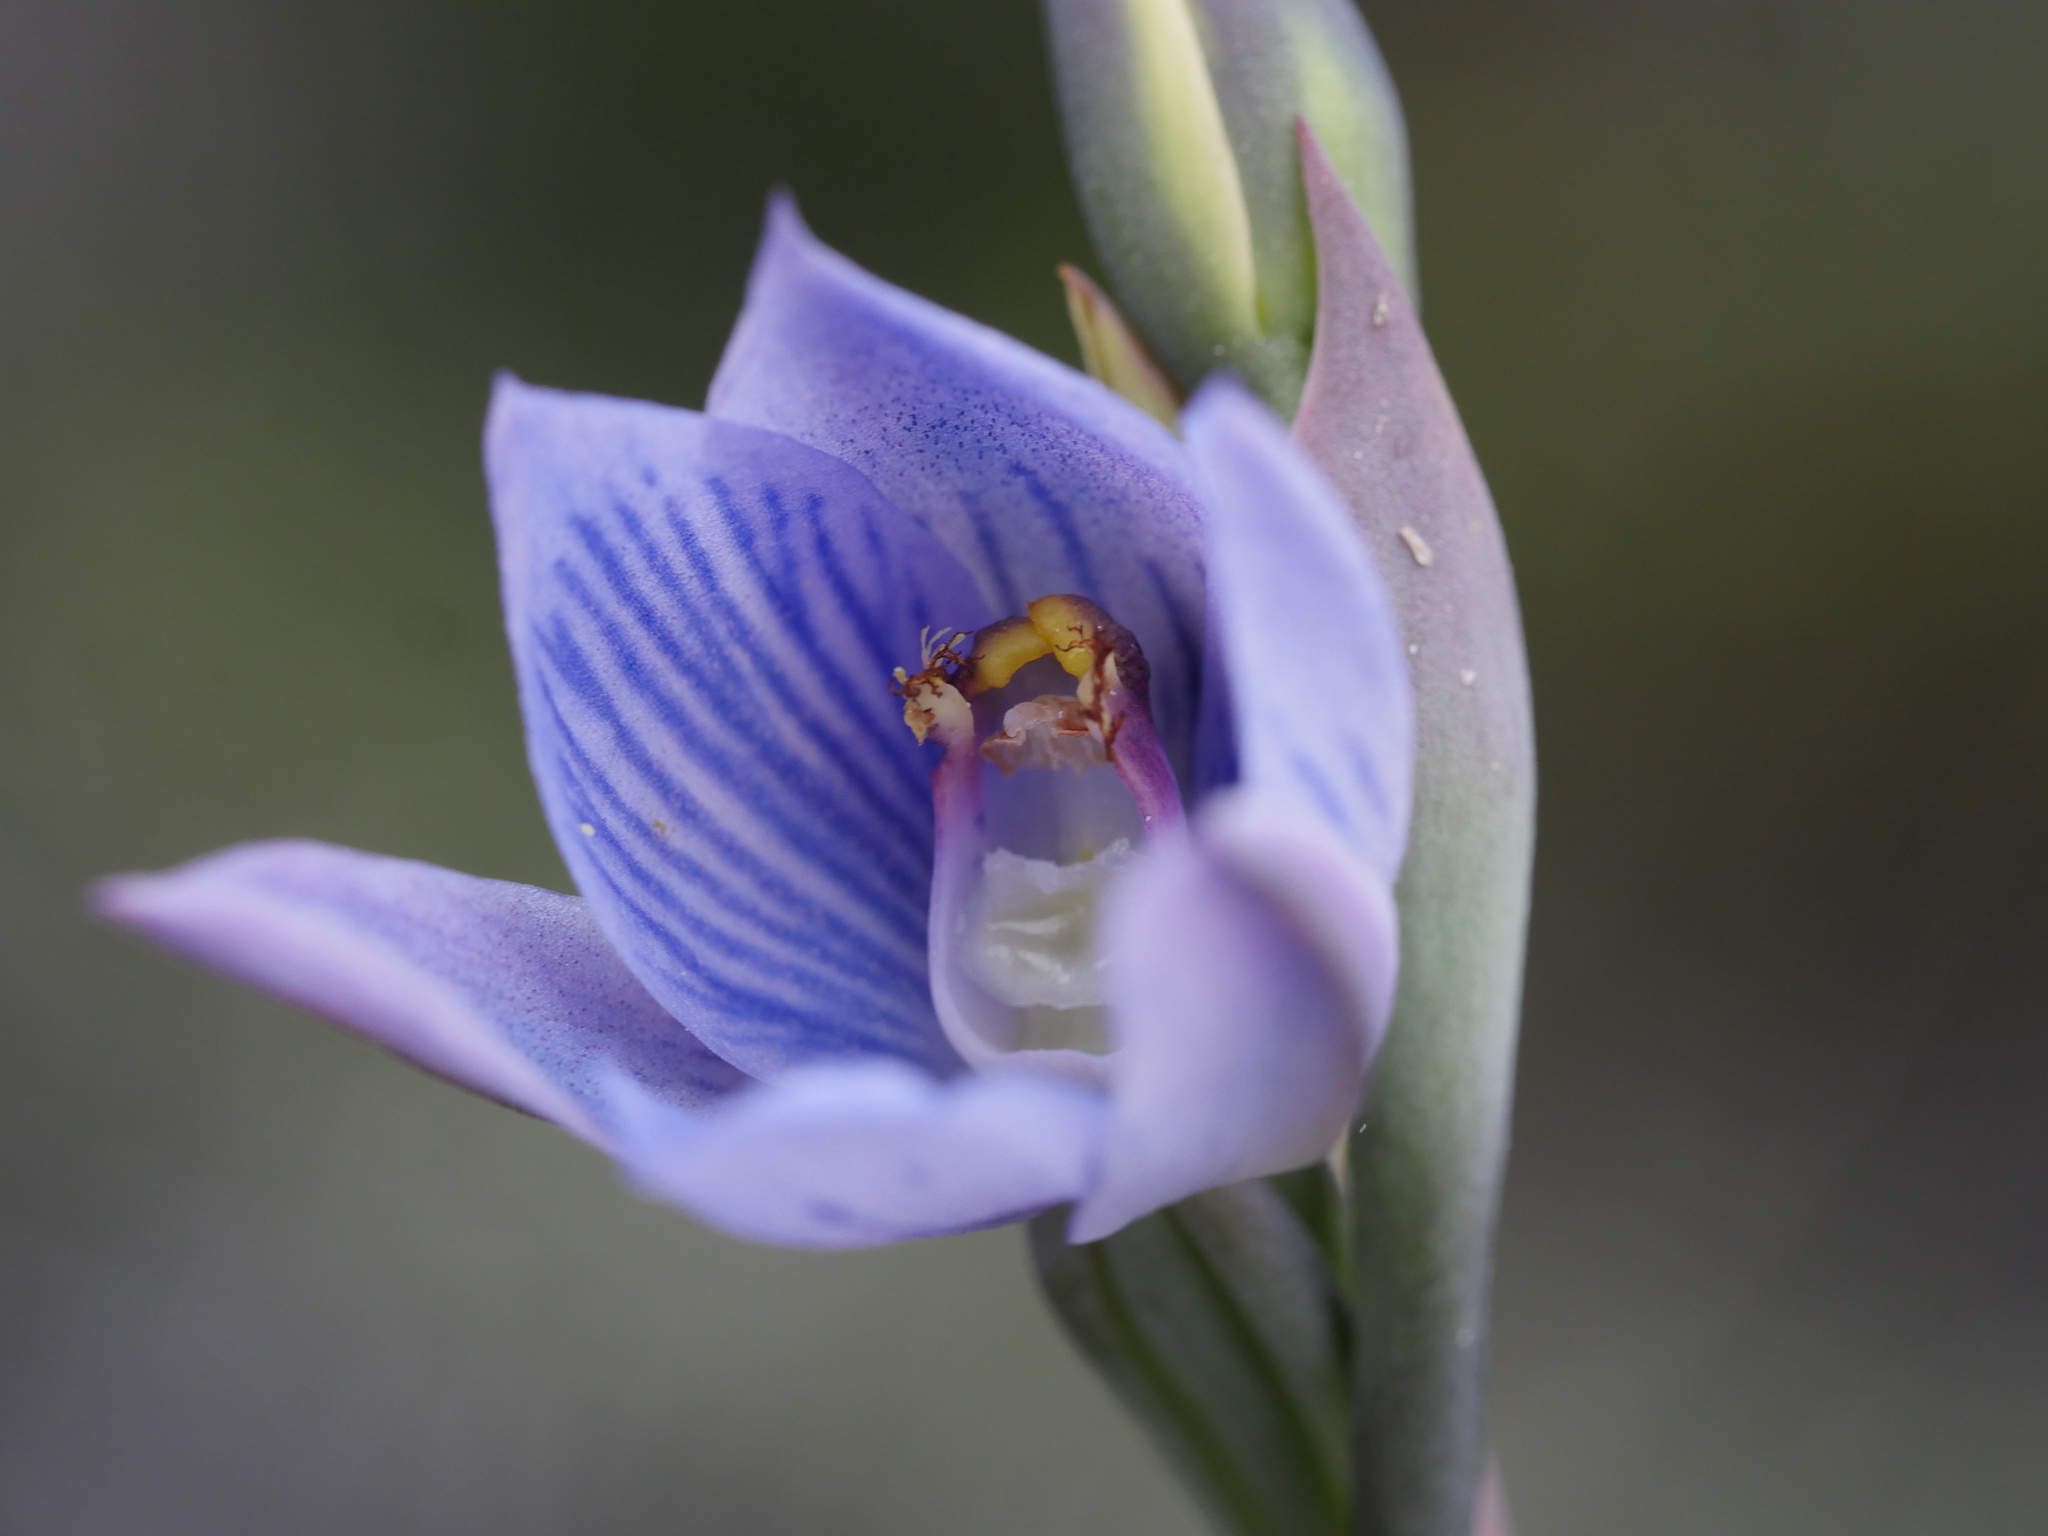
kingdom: Plantae
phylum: Tracheophyta
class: Liliopsida
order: Asparagales
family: Orchidaceae
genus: Thelymitra
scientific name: Thelymitra pulchella
